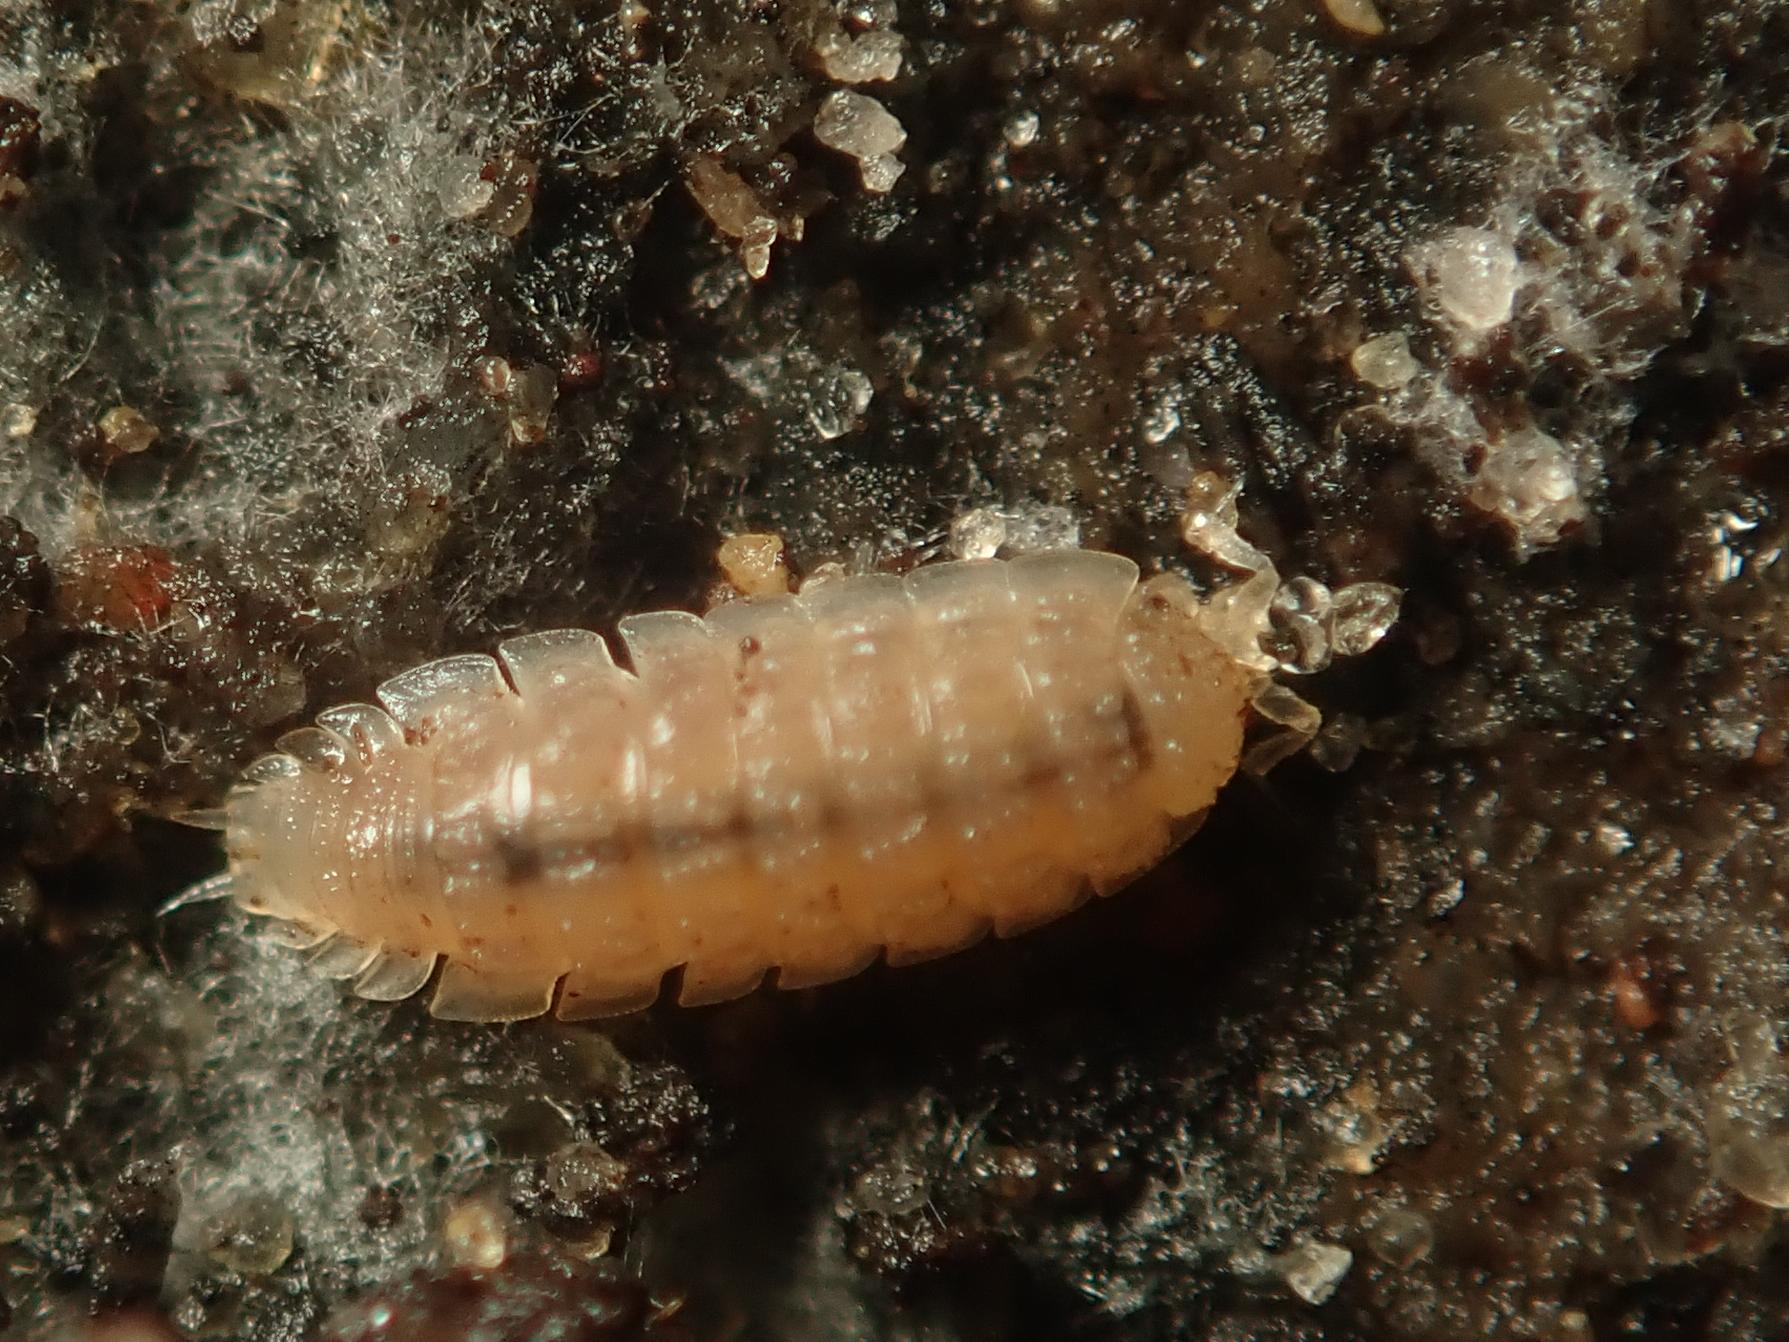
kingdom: Animalia
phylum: Arthropoda
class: Malacostraca
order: Isopoda
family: Trichoniscidae
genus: Haplophthalmus
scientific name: Haplophthalmus danicus
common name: Pillbug
